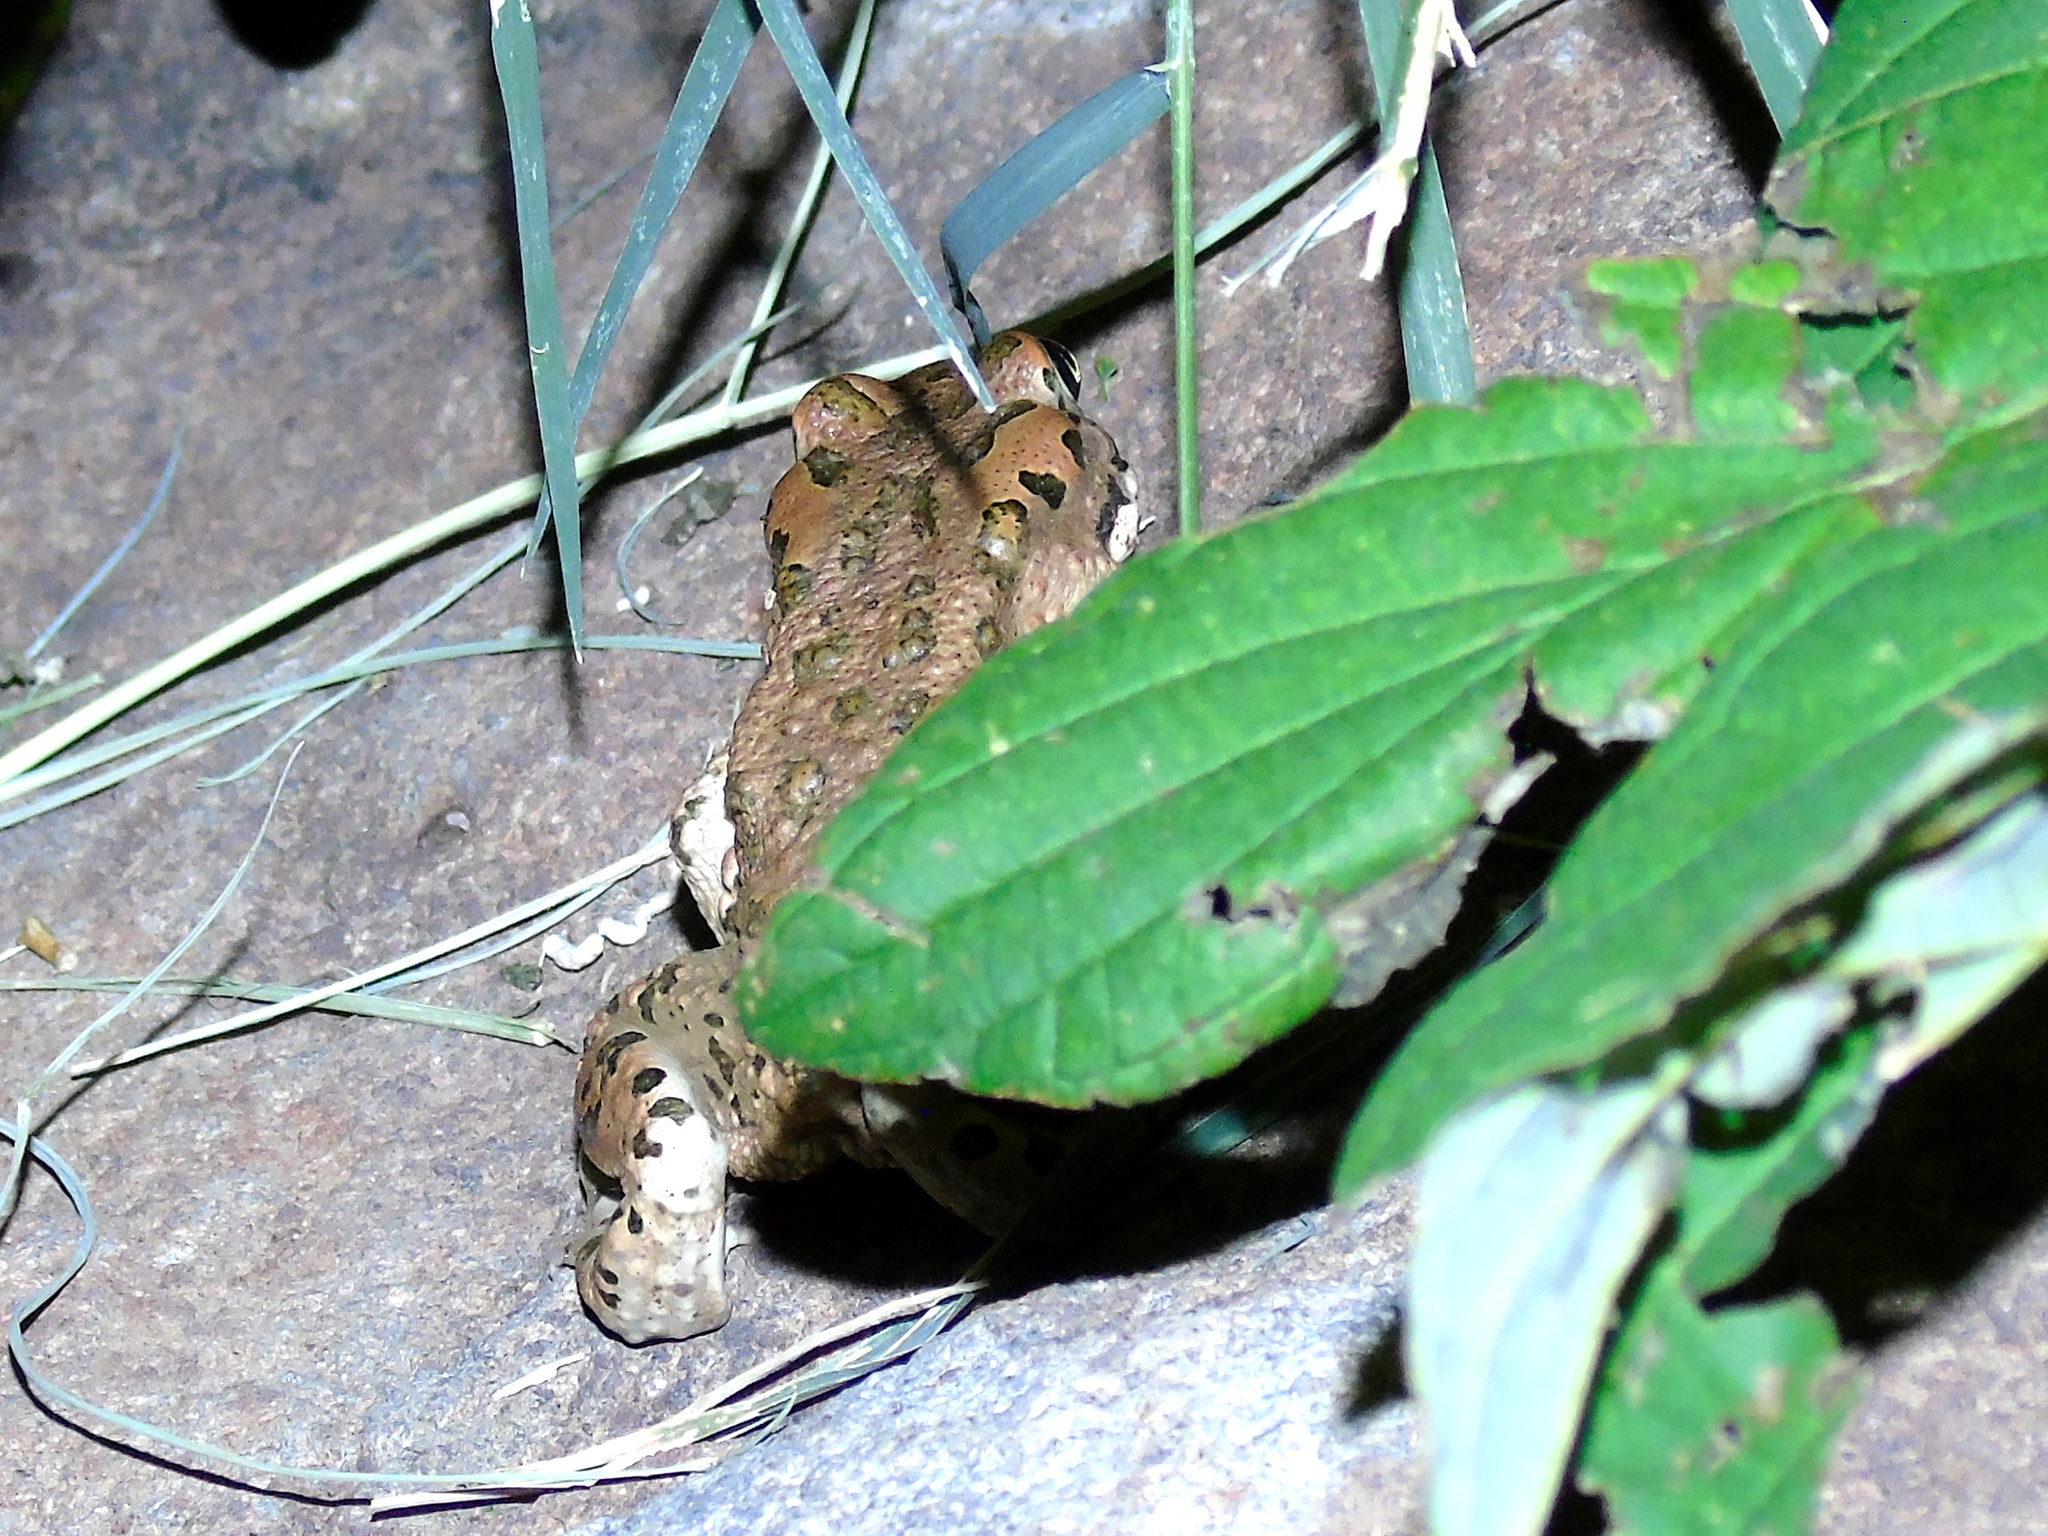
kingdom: Animalia
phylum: Chordata
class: Amphibia
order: Anura
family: Bufonidae
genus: Bufotes
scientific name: Bufotes viridis
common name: European green toad
